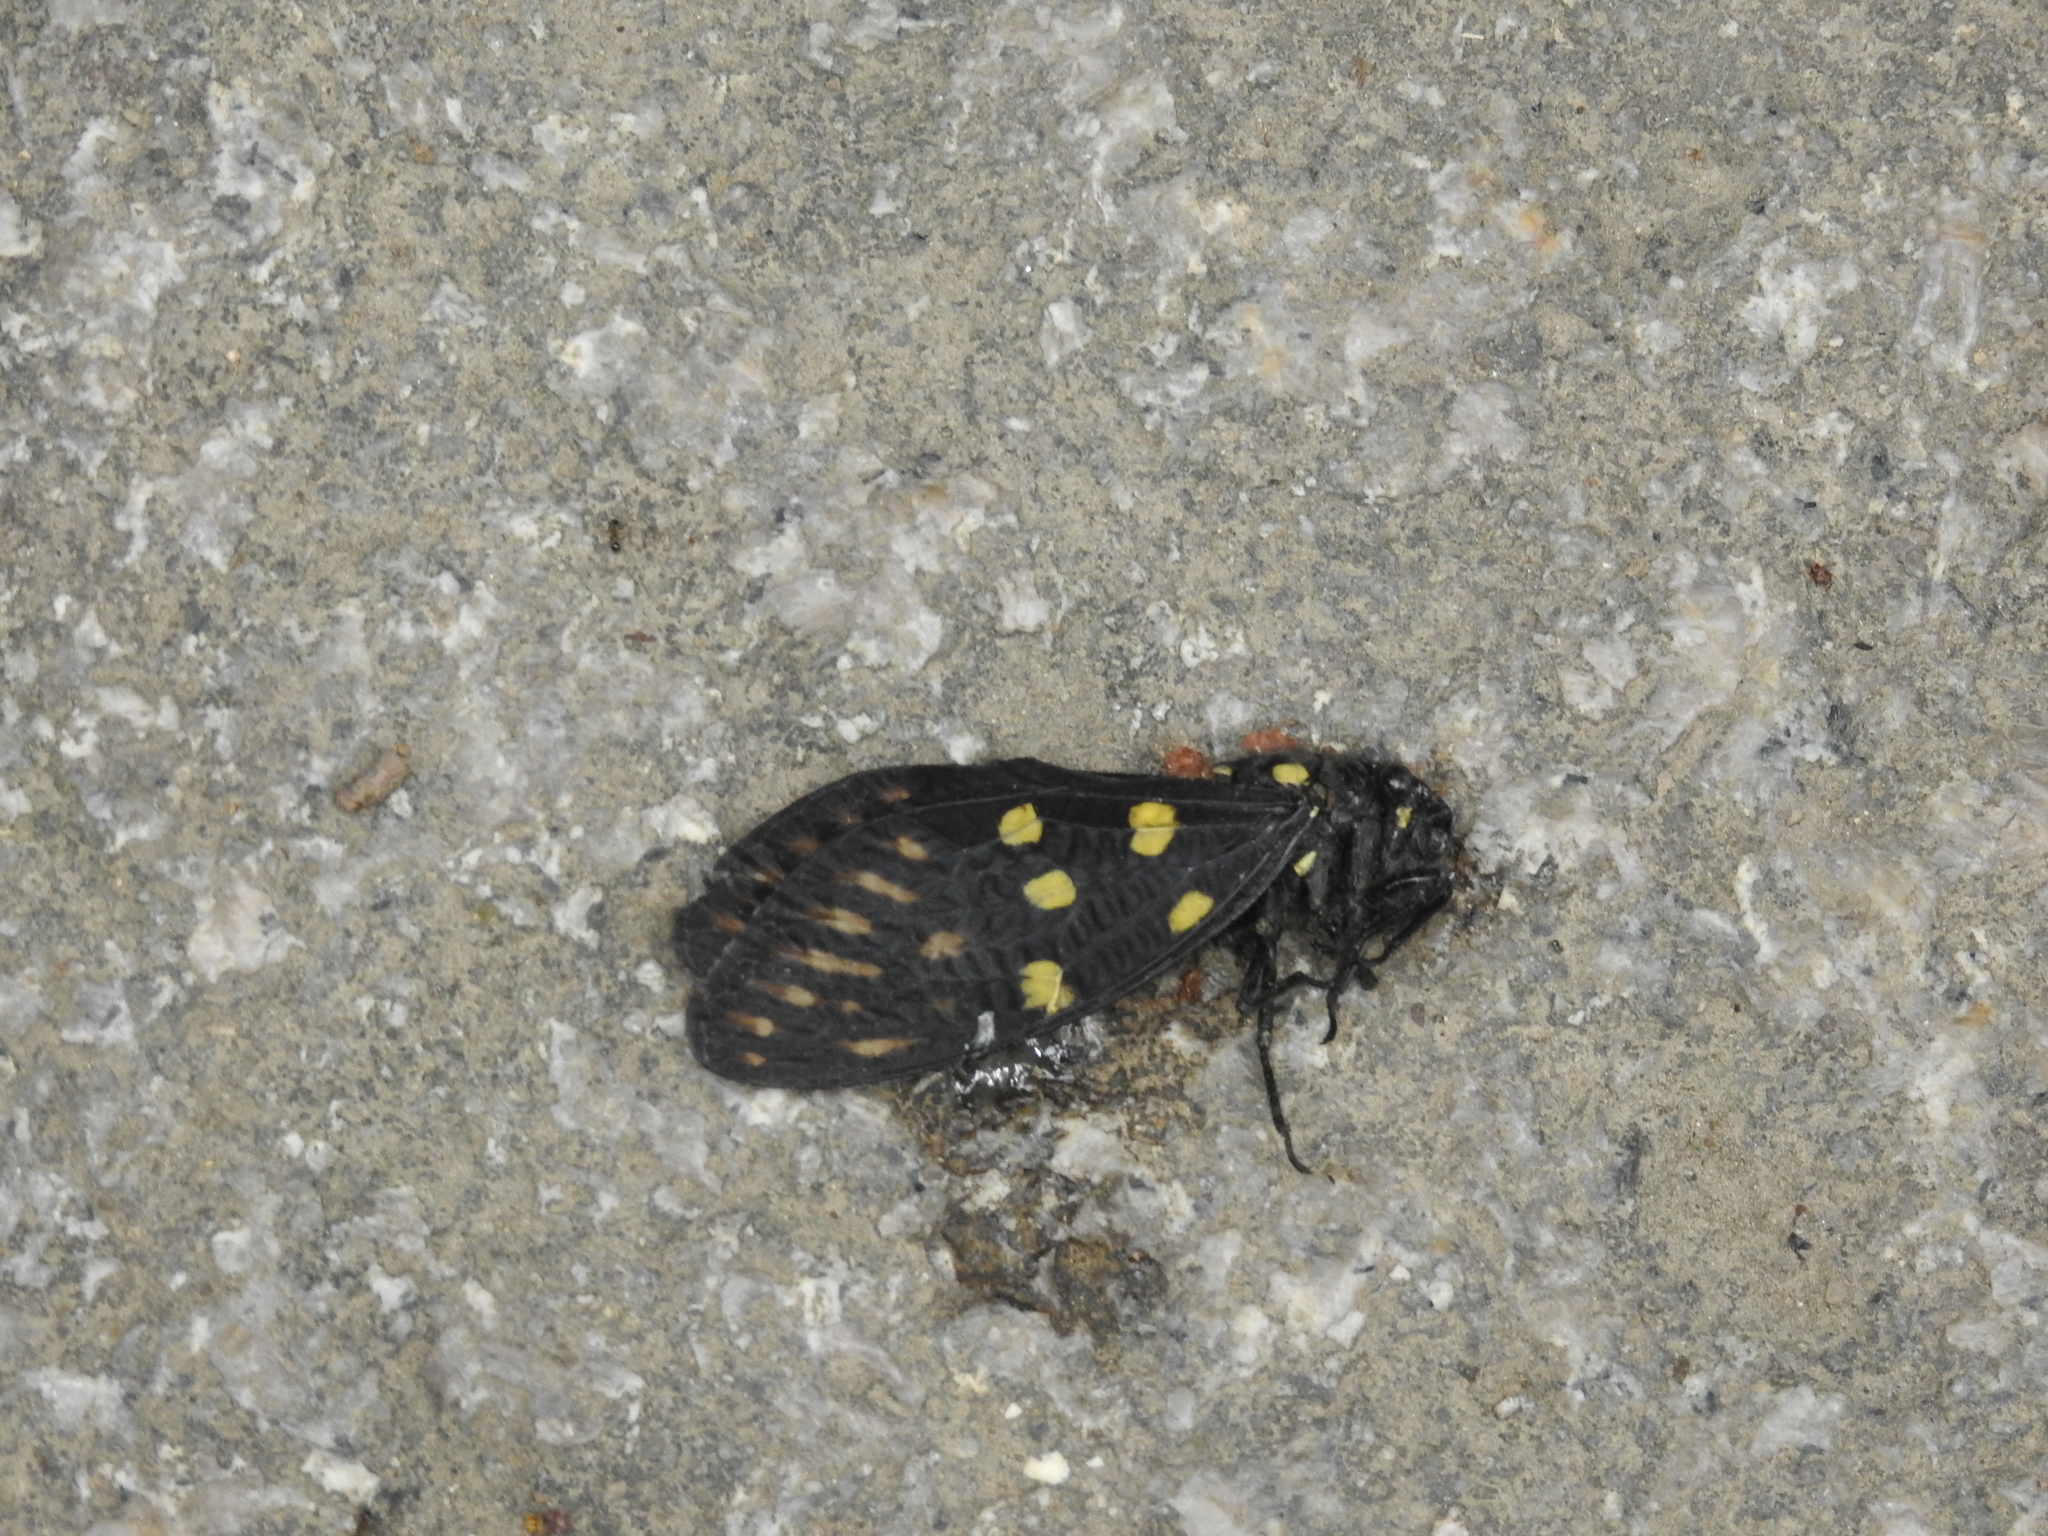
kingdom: Animalia
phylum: Arthropoda
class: Insecta
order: Hemiptera
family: Cicadidae
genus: Gaeana
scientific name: Gaeana maculata
